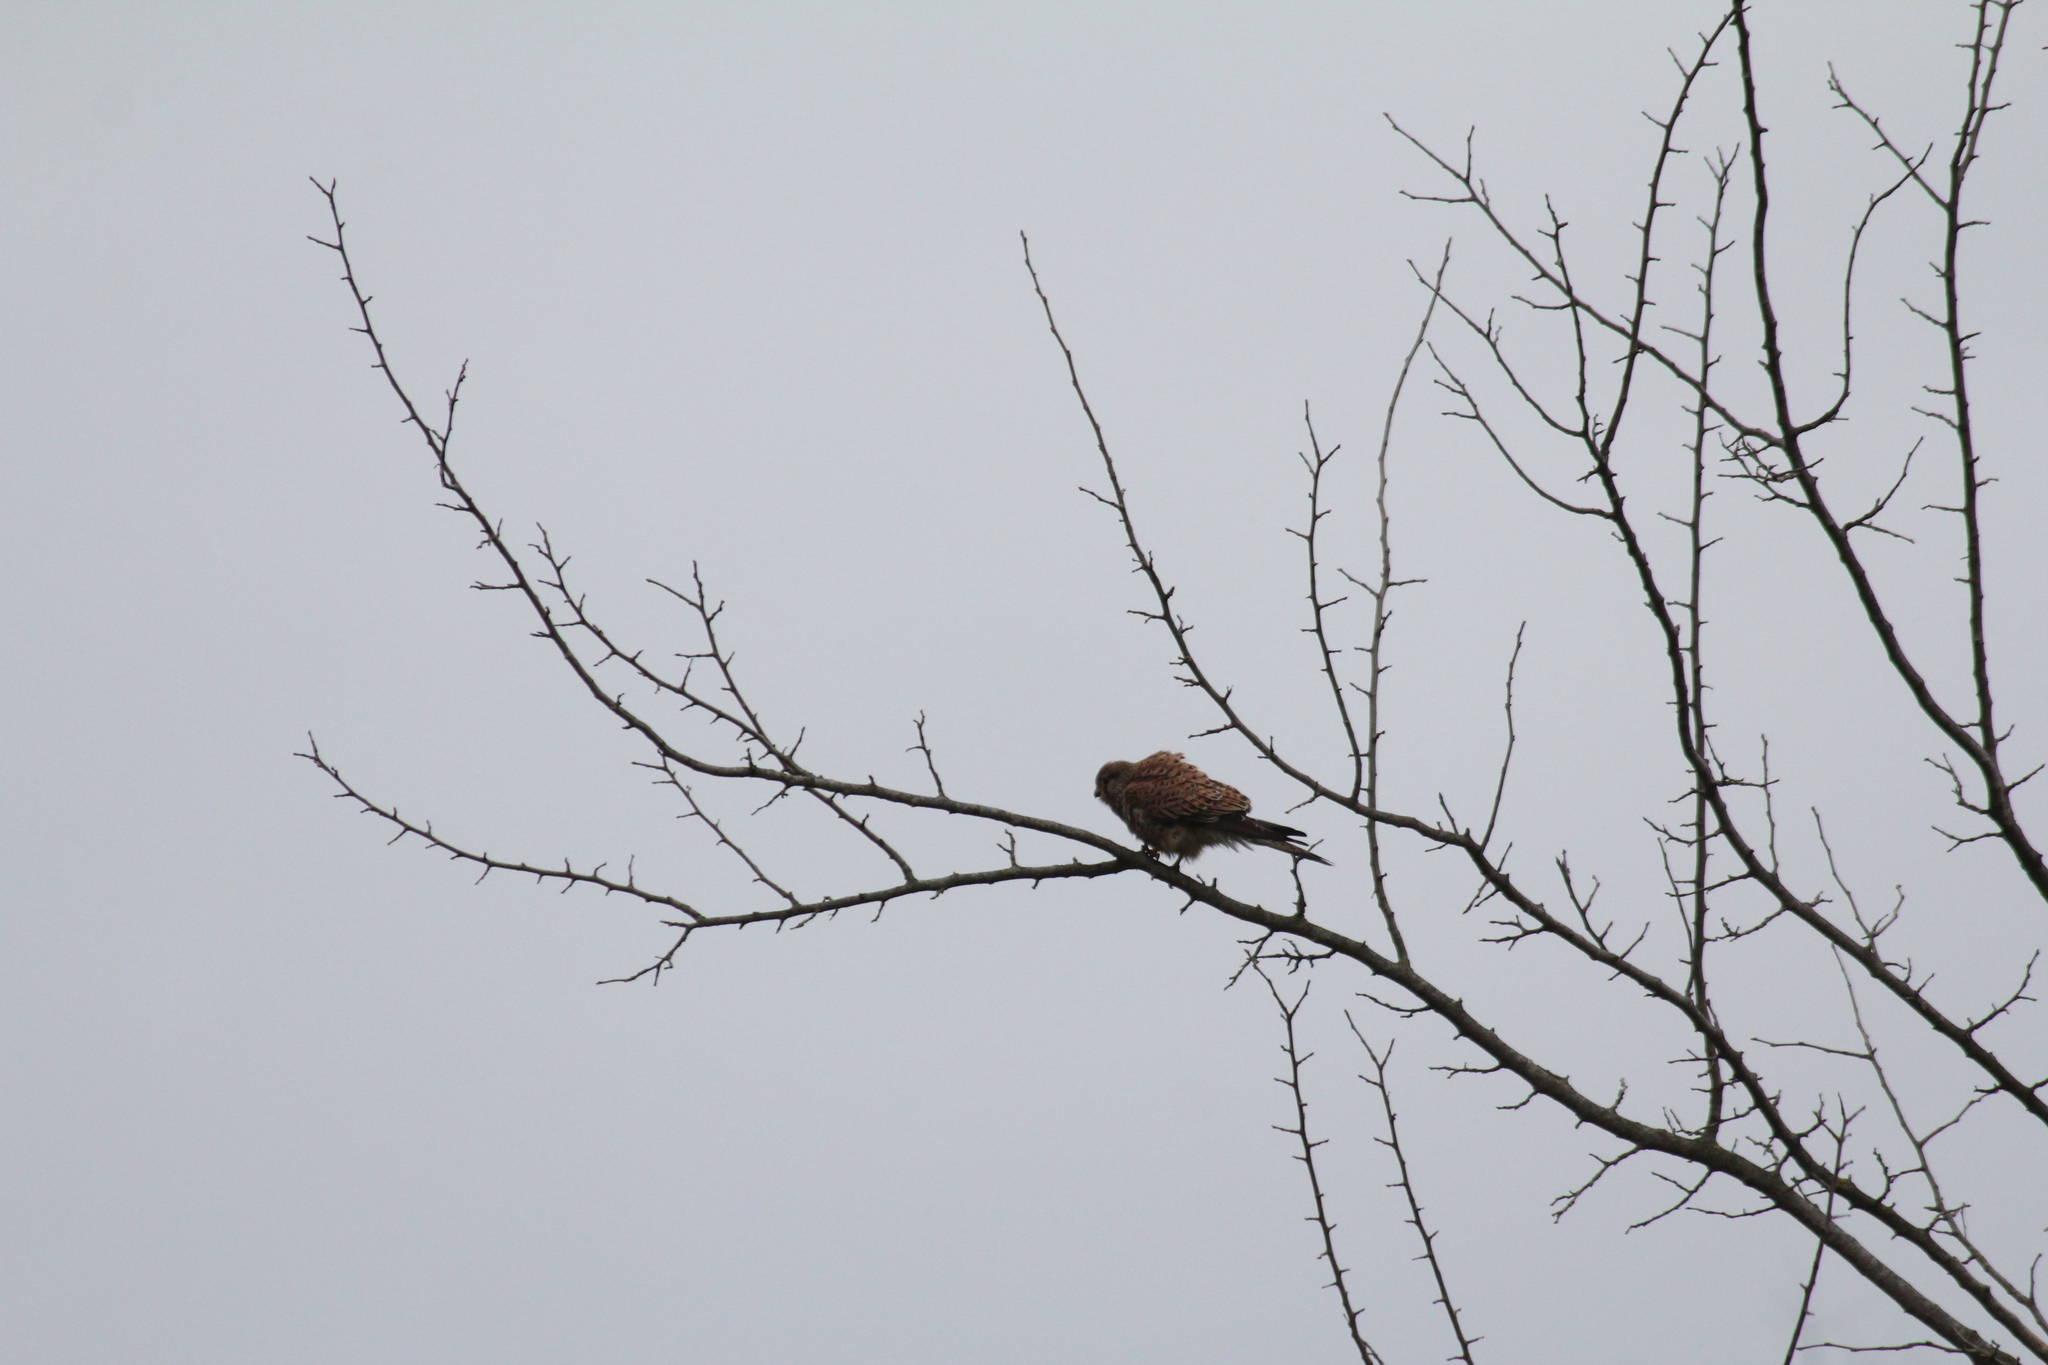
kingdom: Animalia
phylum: Chordata
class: Aves
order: Falconiformes
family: Falconidae
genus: Falco
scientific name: Falco tinnunculus
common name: Common kestrel
